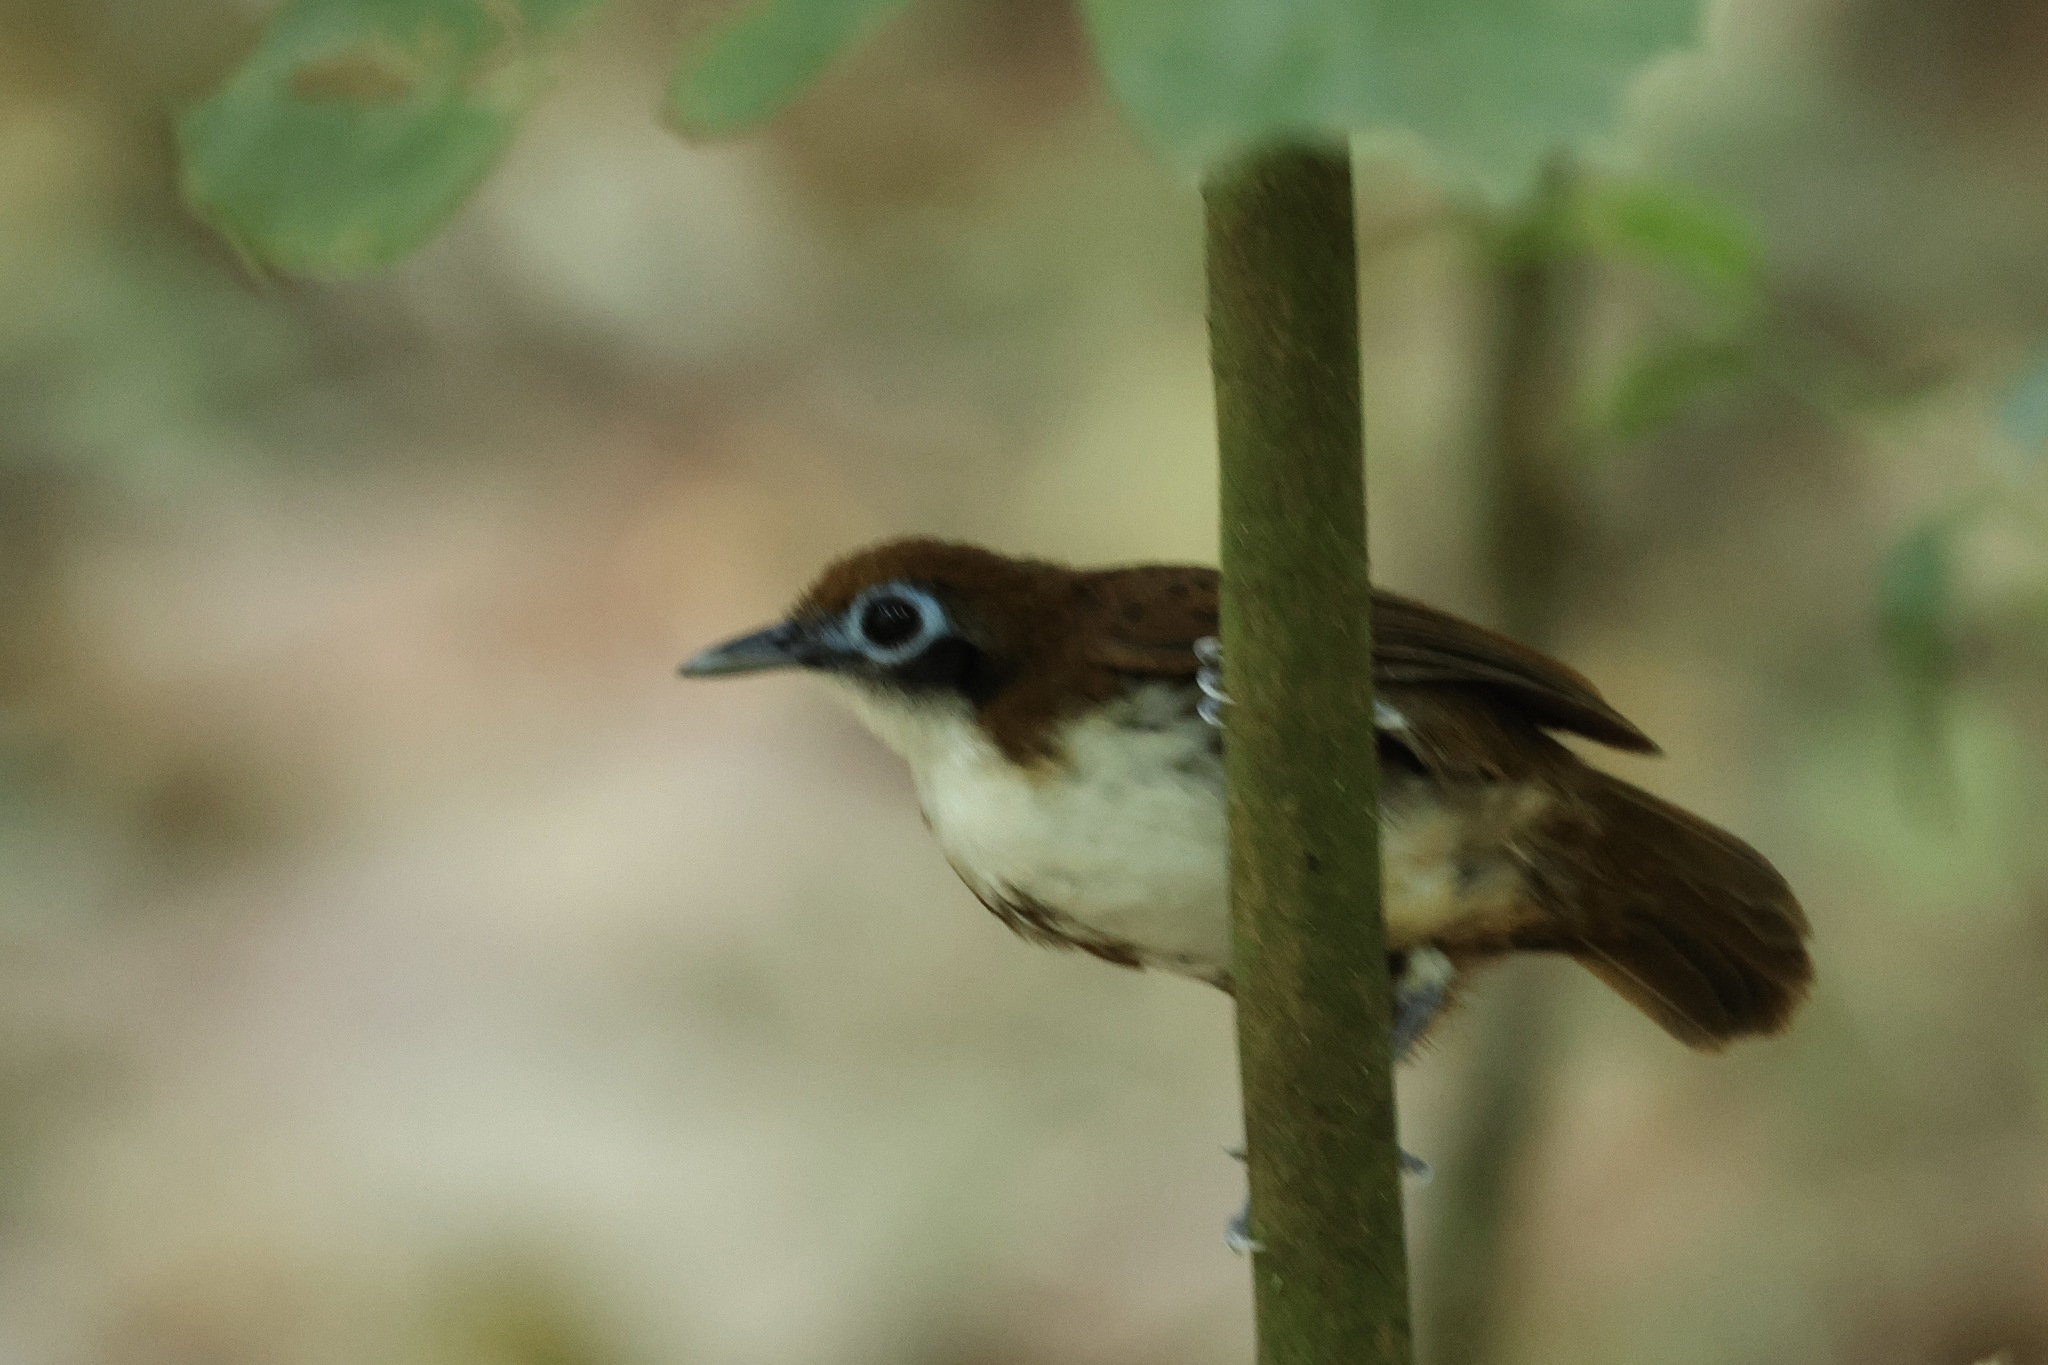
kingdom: Animalia
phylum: Chordata
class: Aves
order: Passeriformes
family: Thamnophilidae
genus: Gymnopithys
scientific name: Gymnopithys leucaspis
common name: White-cheeked antbird
